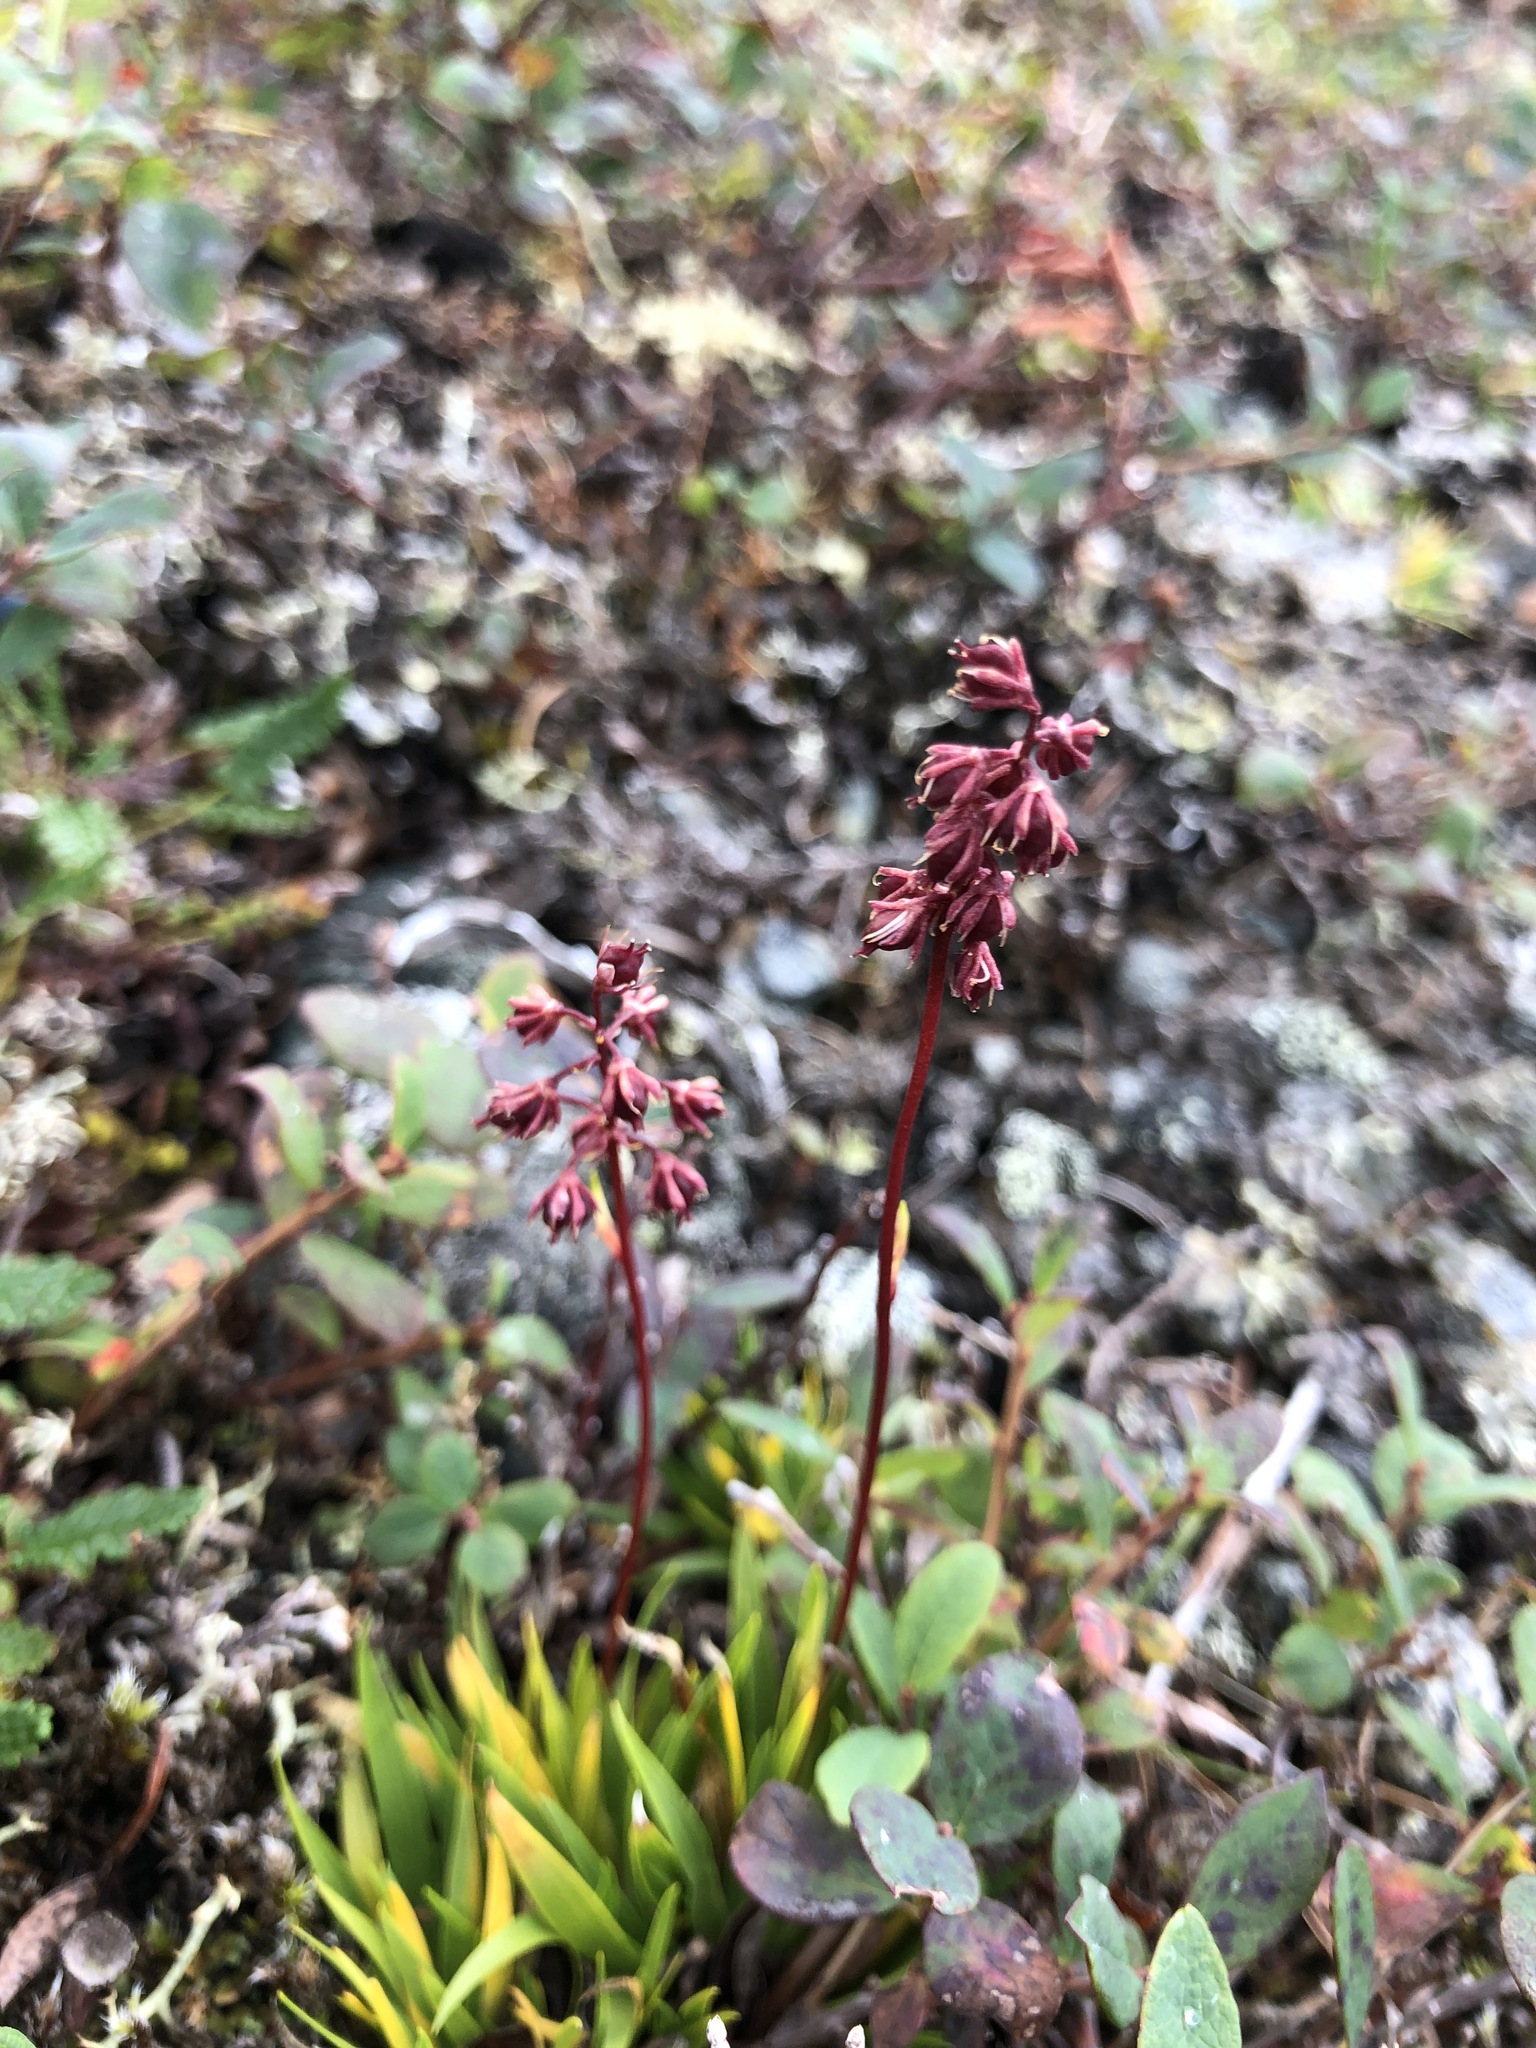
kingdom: Plantae
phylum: Tracheophyta
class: Liliopsida
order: Alismatales
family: Tofieldiaceae
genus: Tofieldia
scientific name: Tofieldia coccinea
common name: Northern false asphodel
